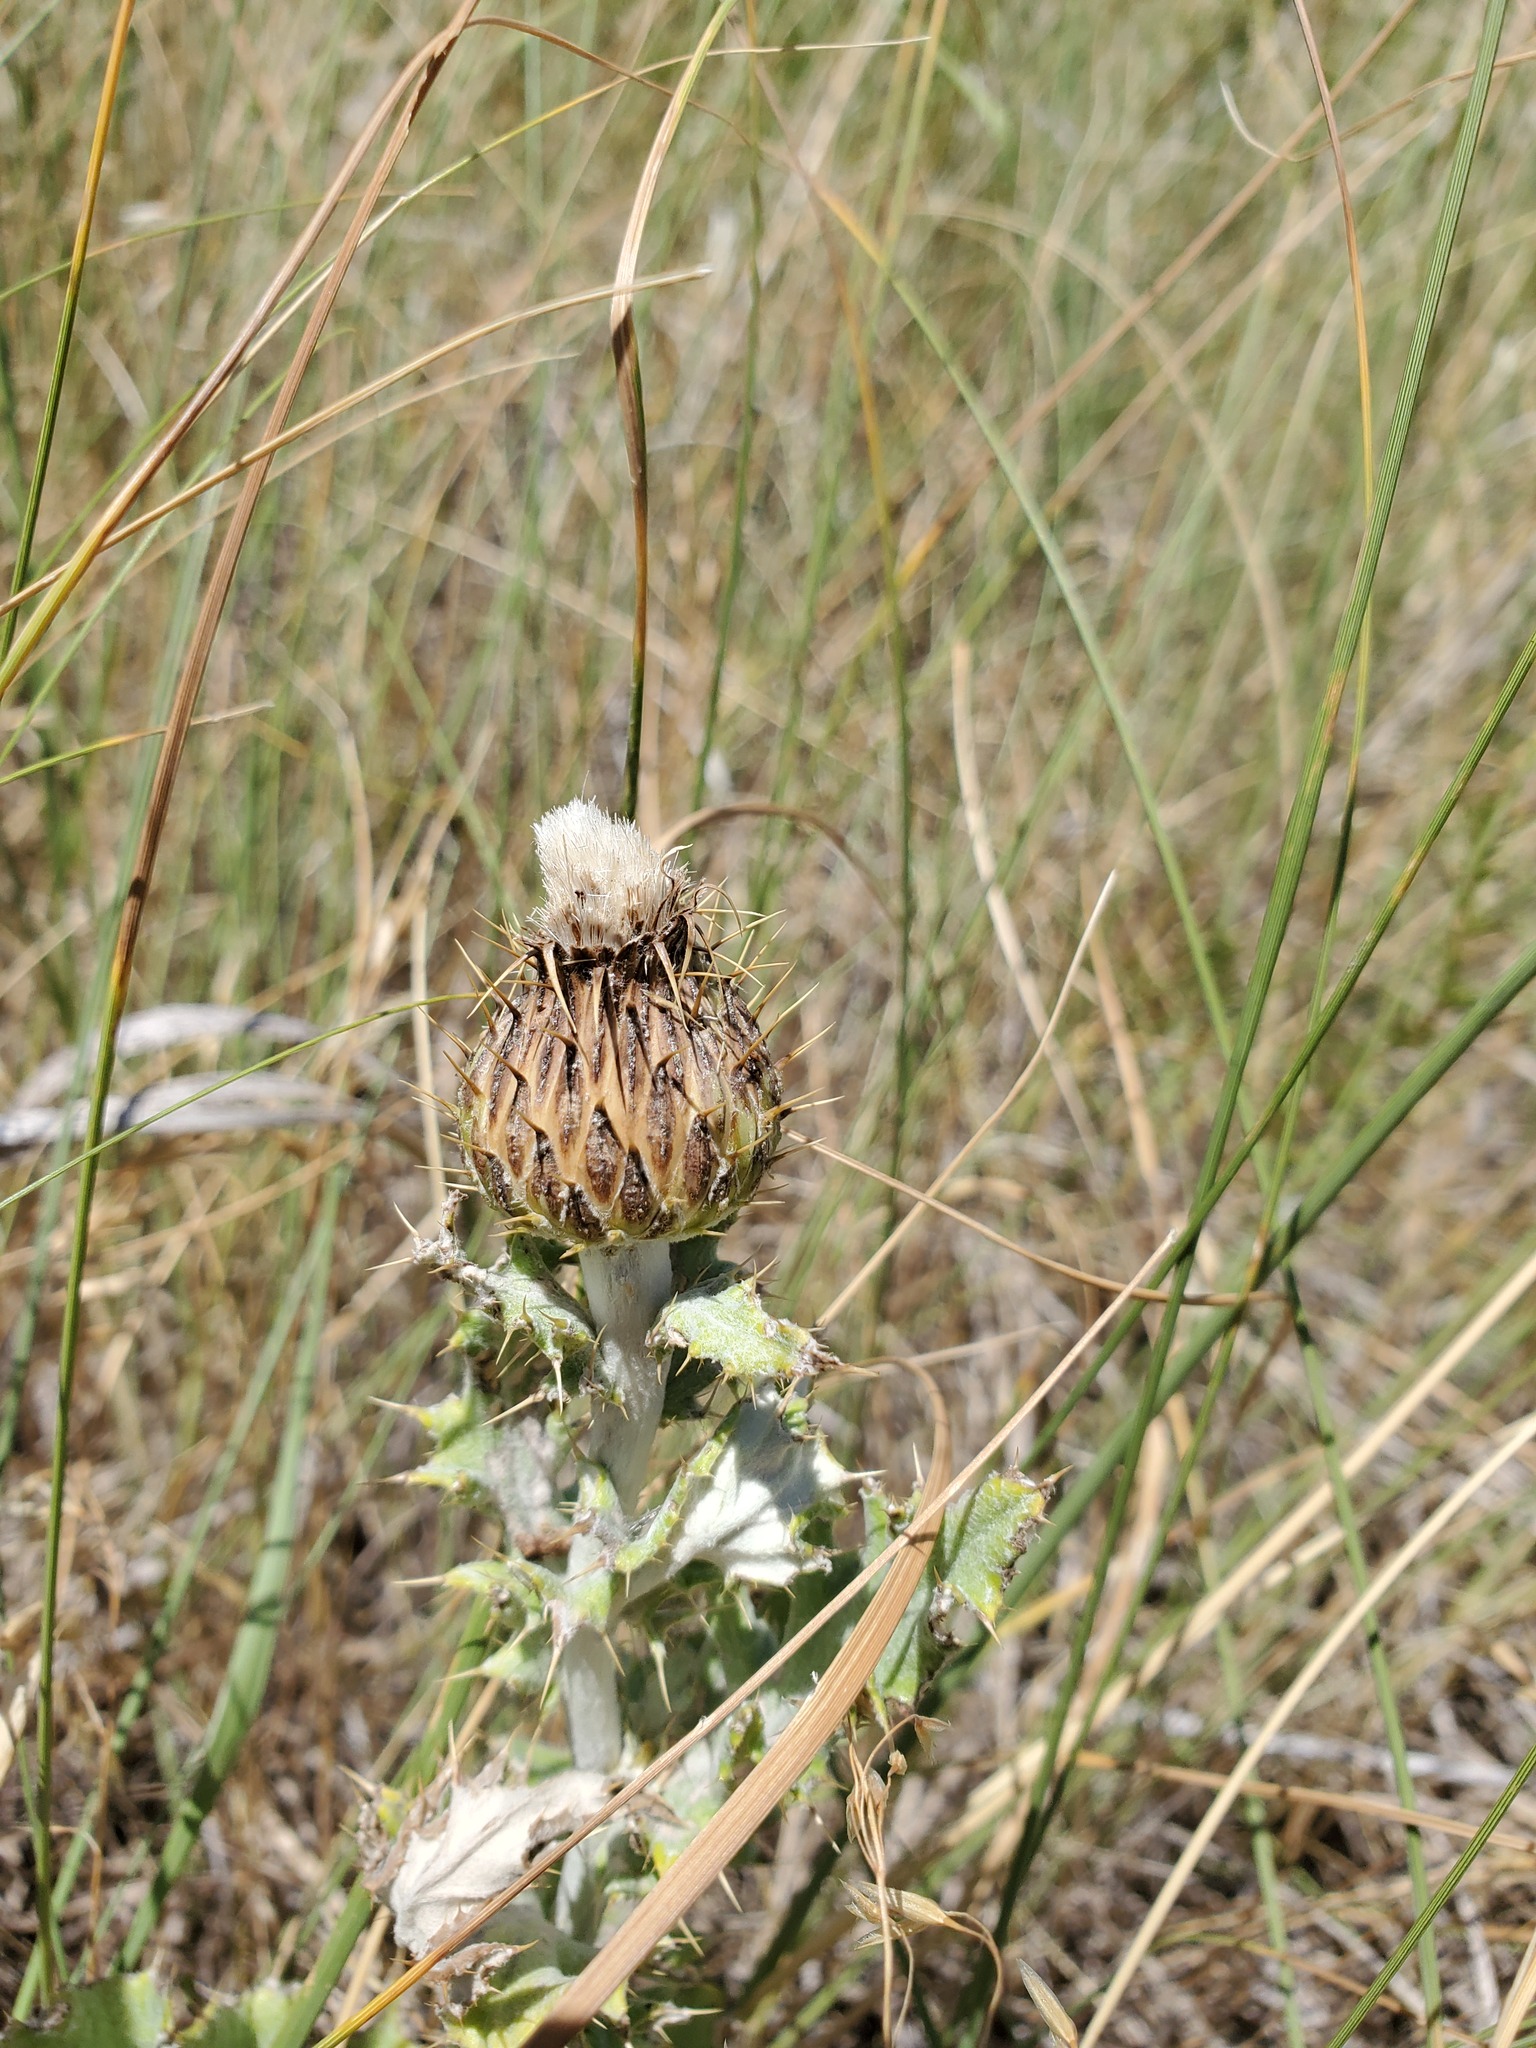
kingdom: Plantae
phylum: Tracheophyta
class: Magnoliopsida
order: Asterales
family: Asteraceae
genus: Cirsium
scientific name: Cirsium undulatum
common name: Pasture thistle
